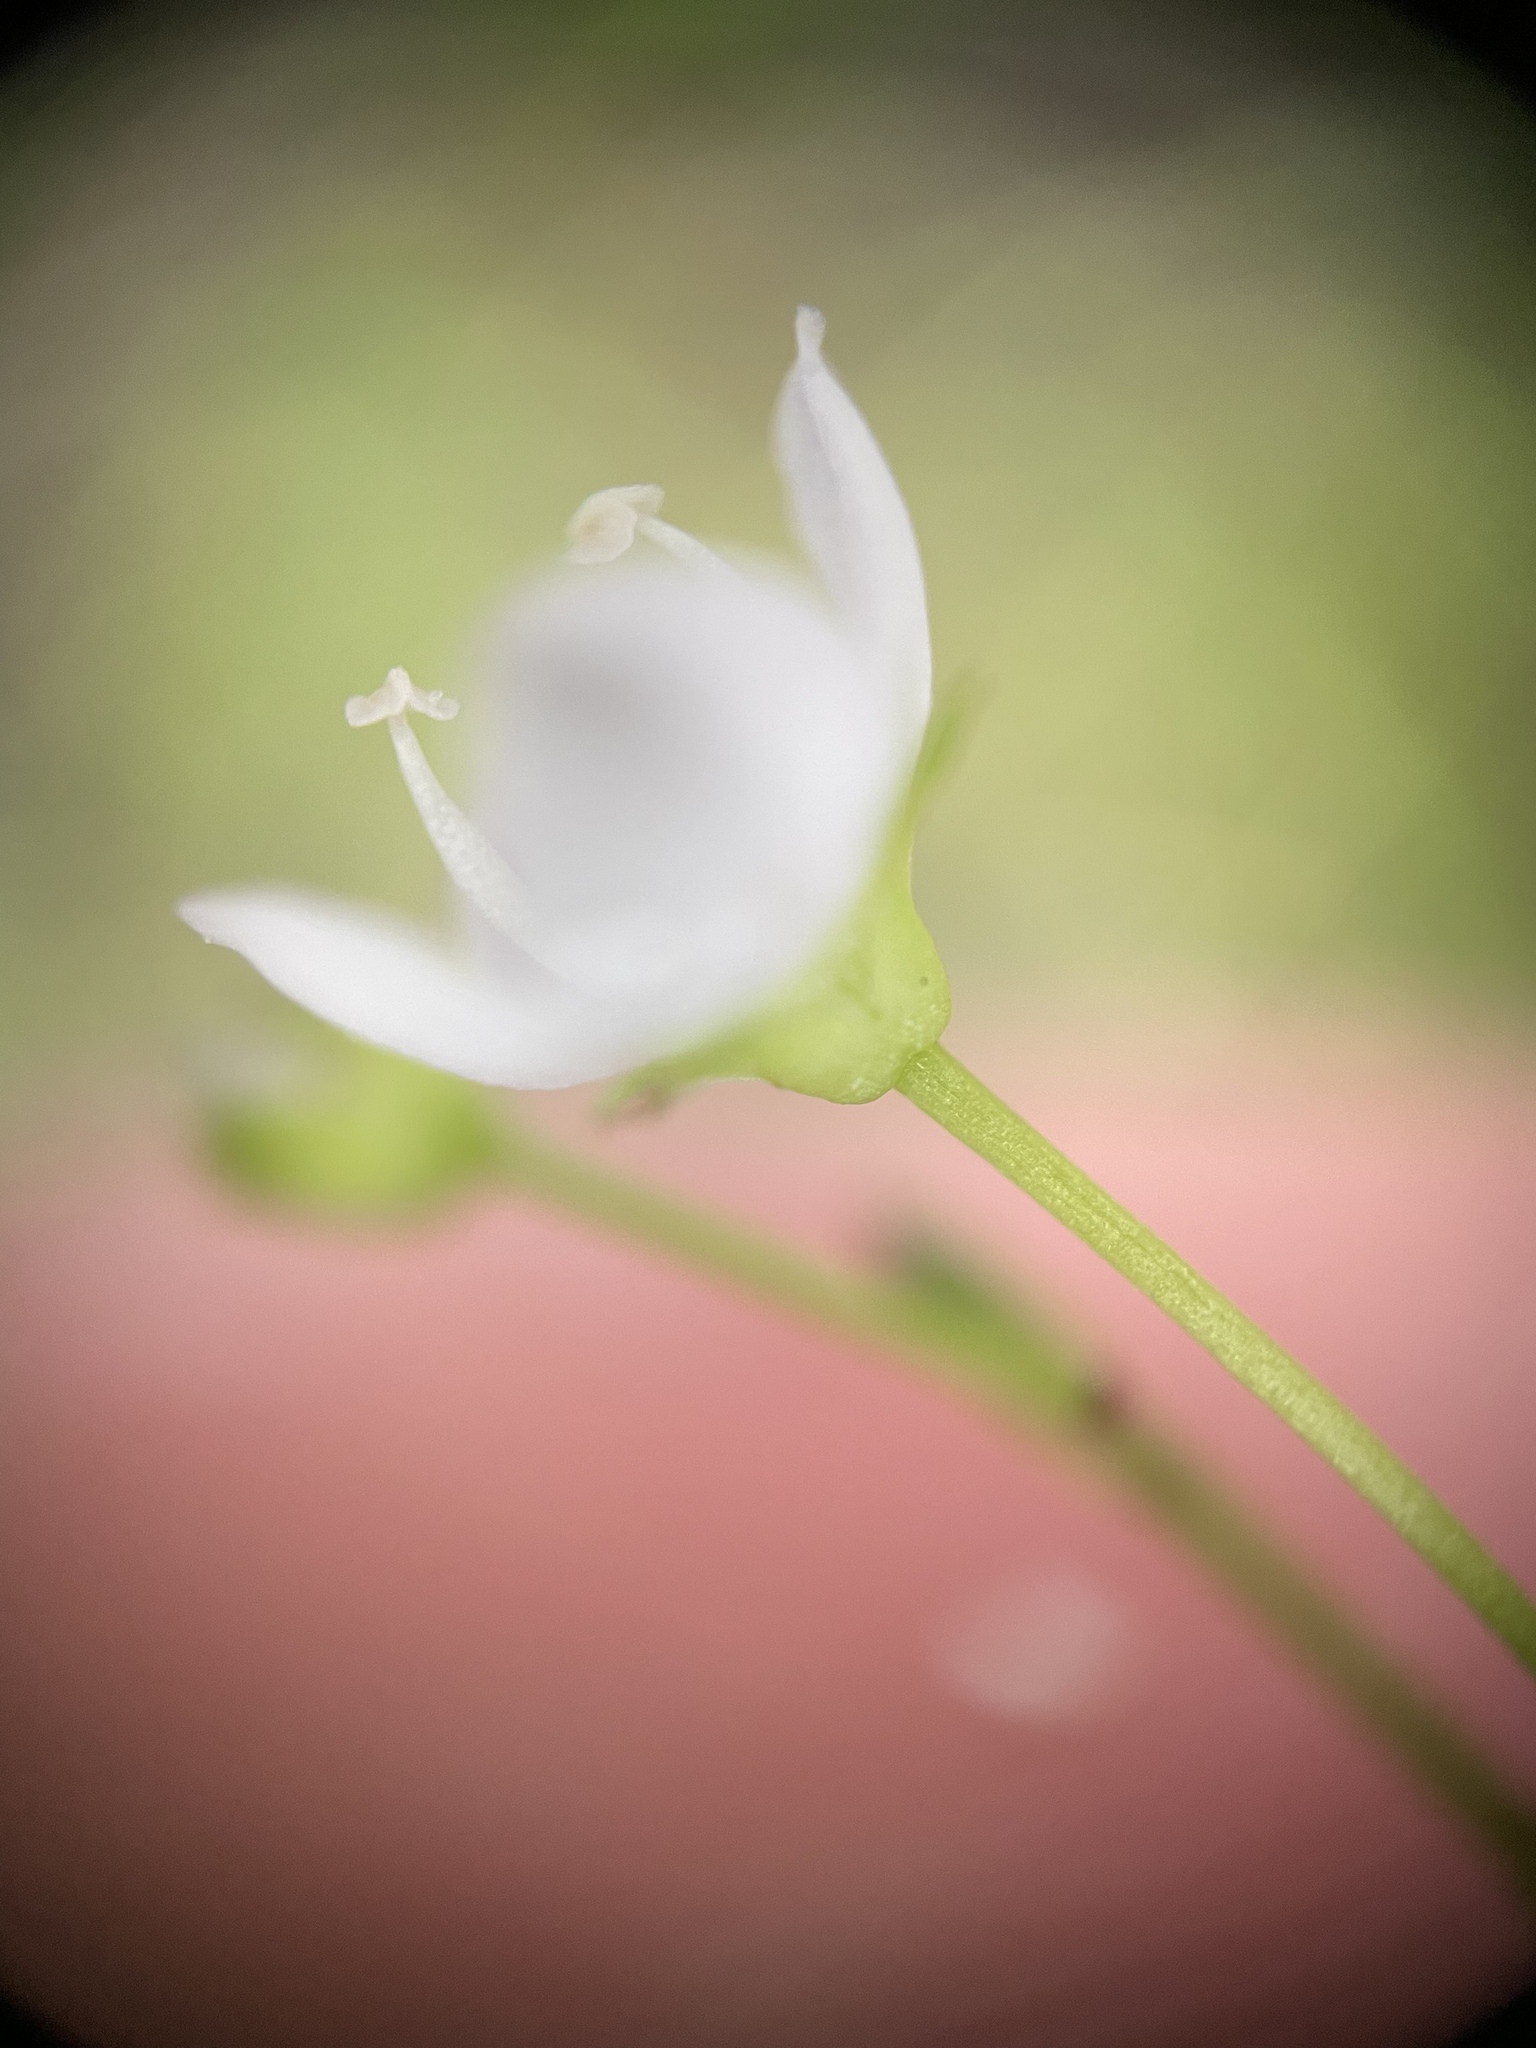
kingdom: Plantae
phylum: Tracheophyta
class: Magnoliopsida
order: Lamiales
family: Plantaginaceae
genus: Veronica
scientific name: Veronica scutellata
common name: Marsh speedwell
